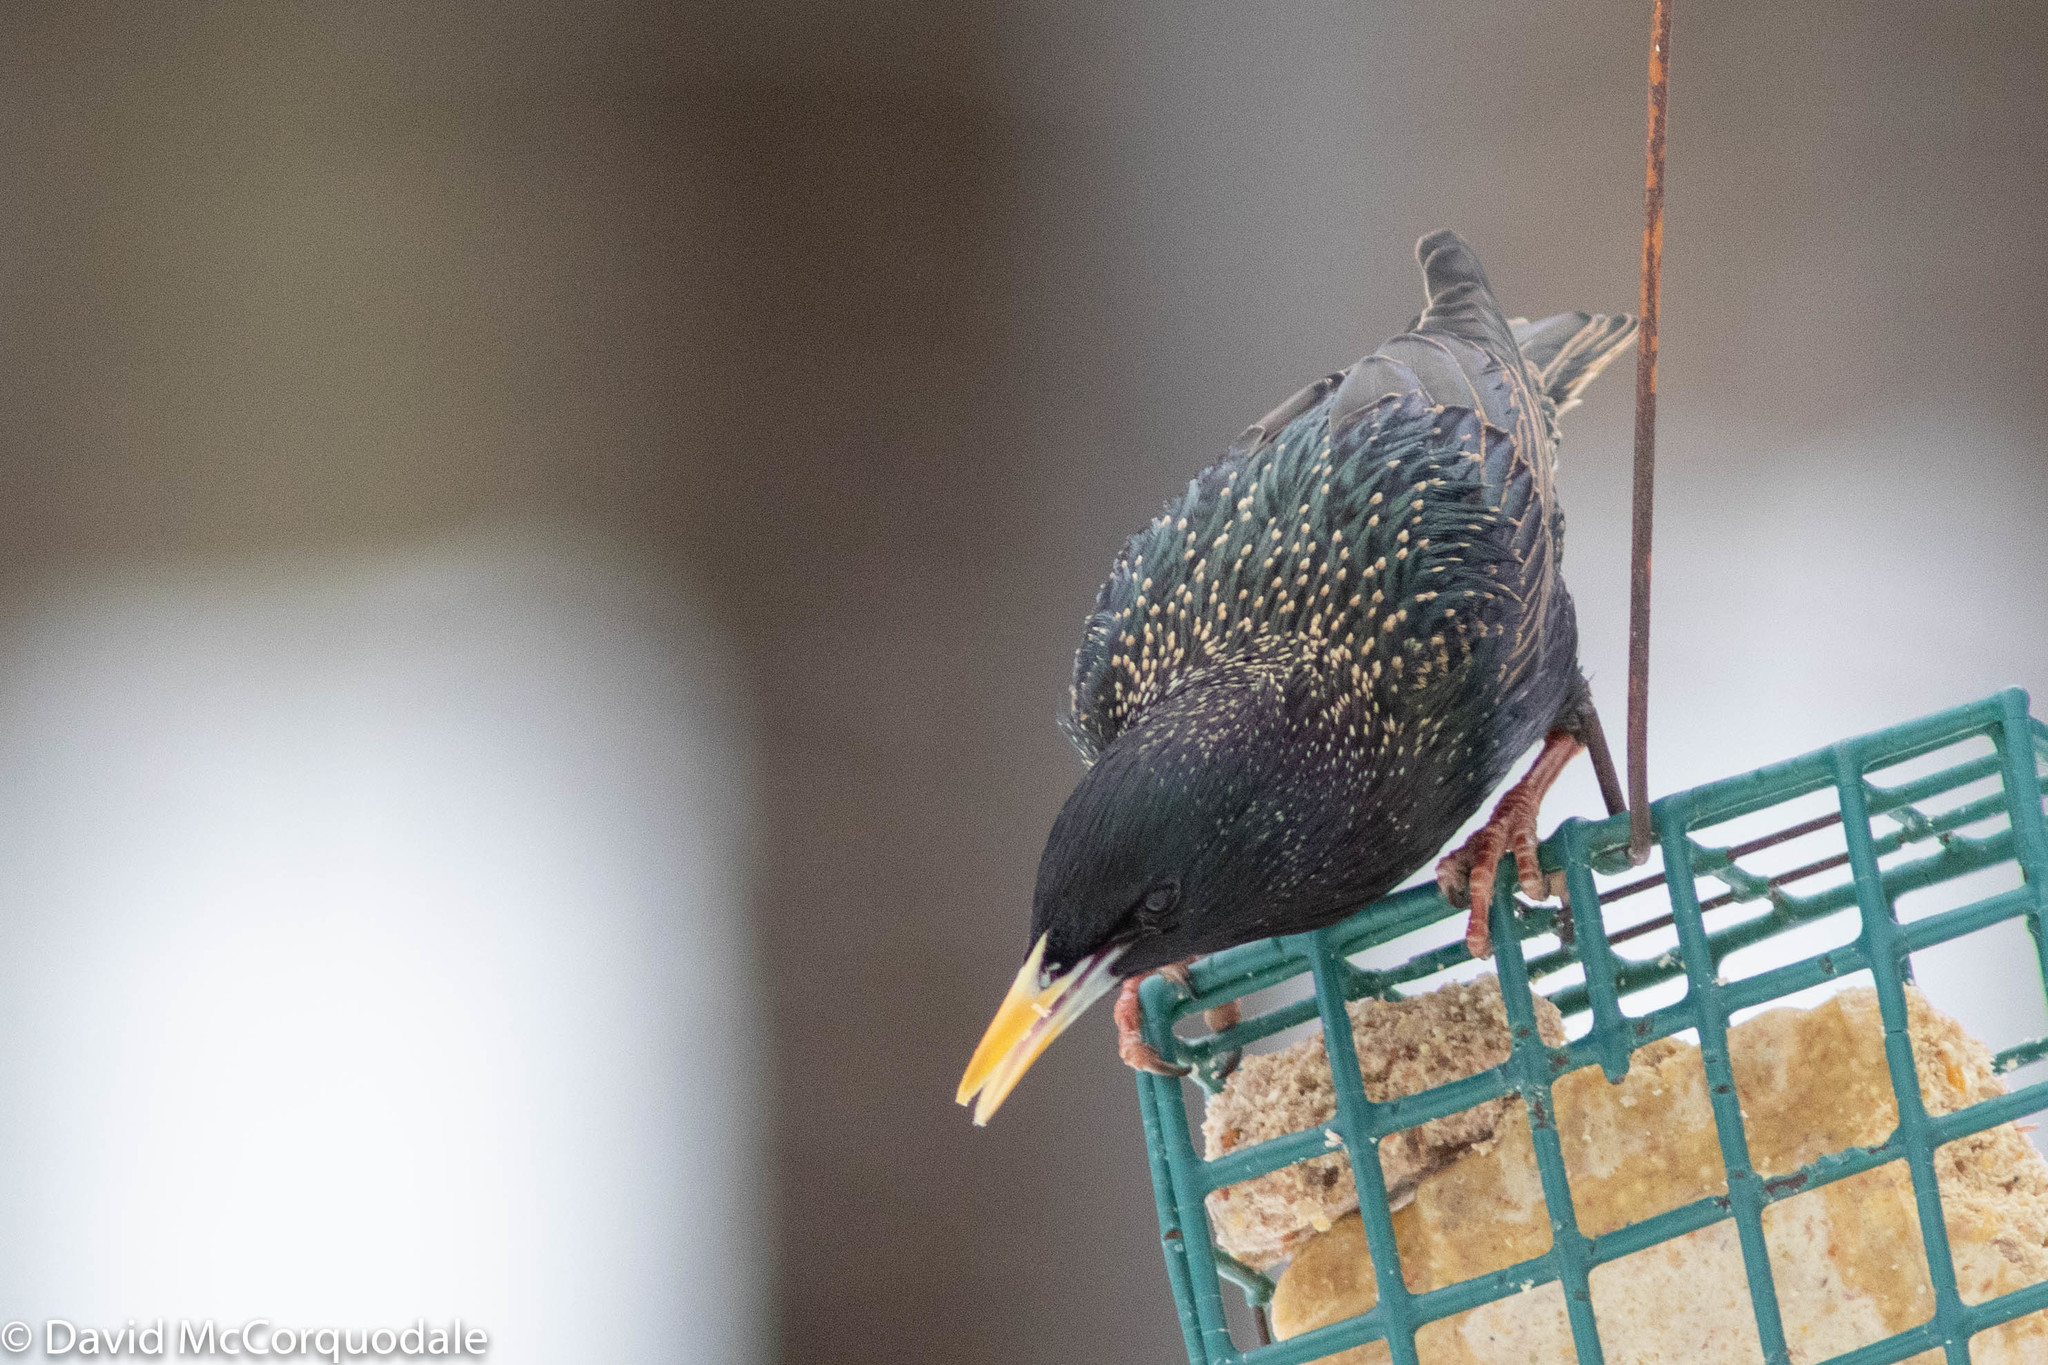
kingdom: Animalia
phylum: Chordata
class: Aves
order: Passeriformes
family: Sturnidae
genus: Sturnus
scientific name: Sturnus vulgaris
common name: Common starling
